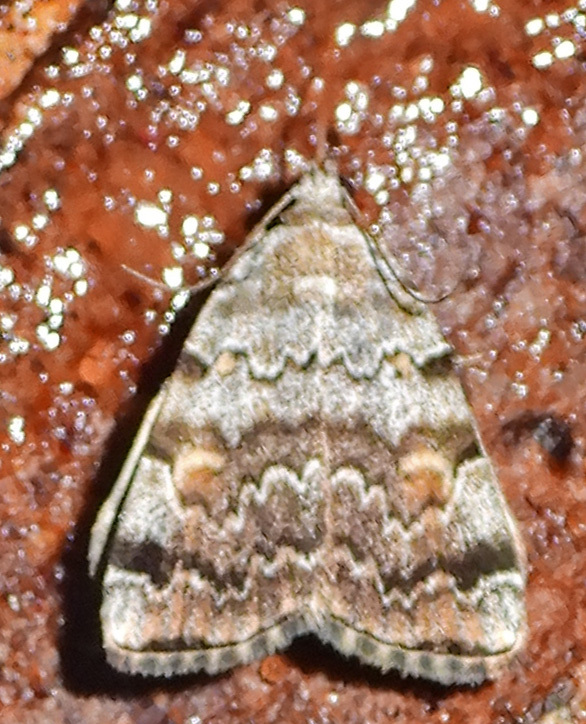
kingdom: Animalia
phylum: Arthropoda
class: Insecta
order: Lepidoptera
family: Erebidae
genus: Idia
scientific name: Idia americalis
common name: American idia moth
